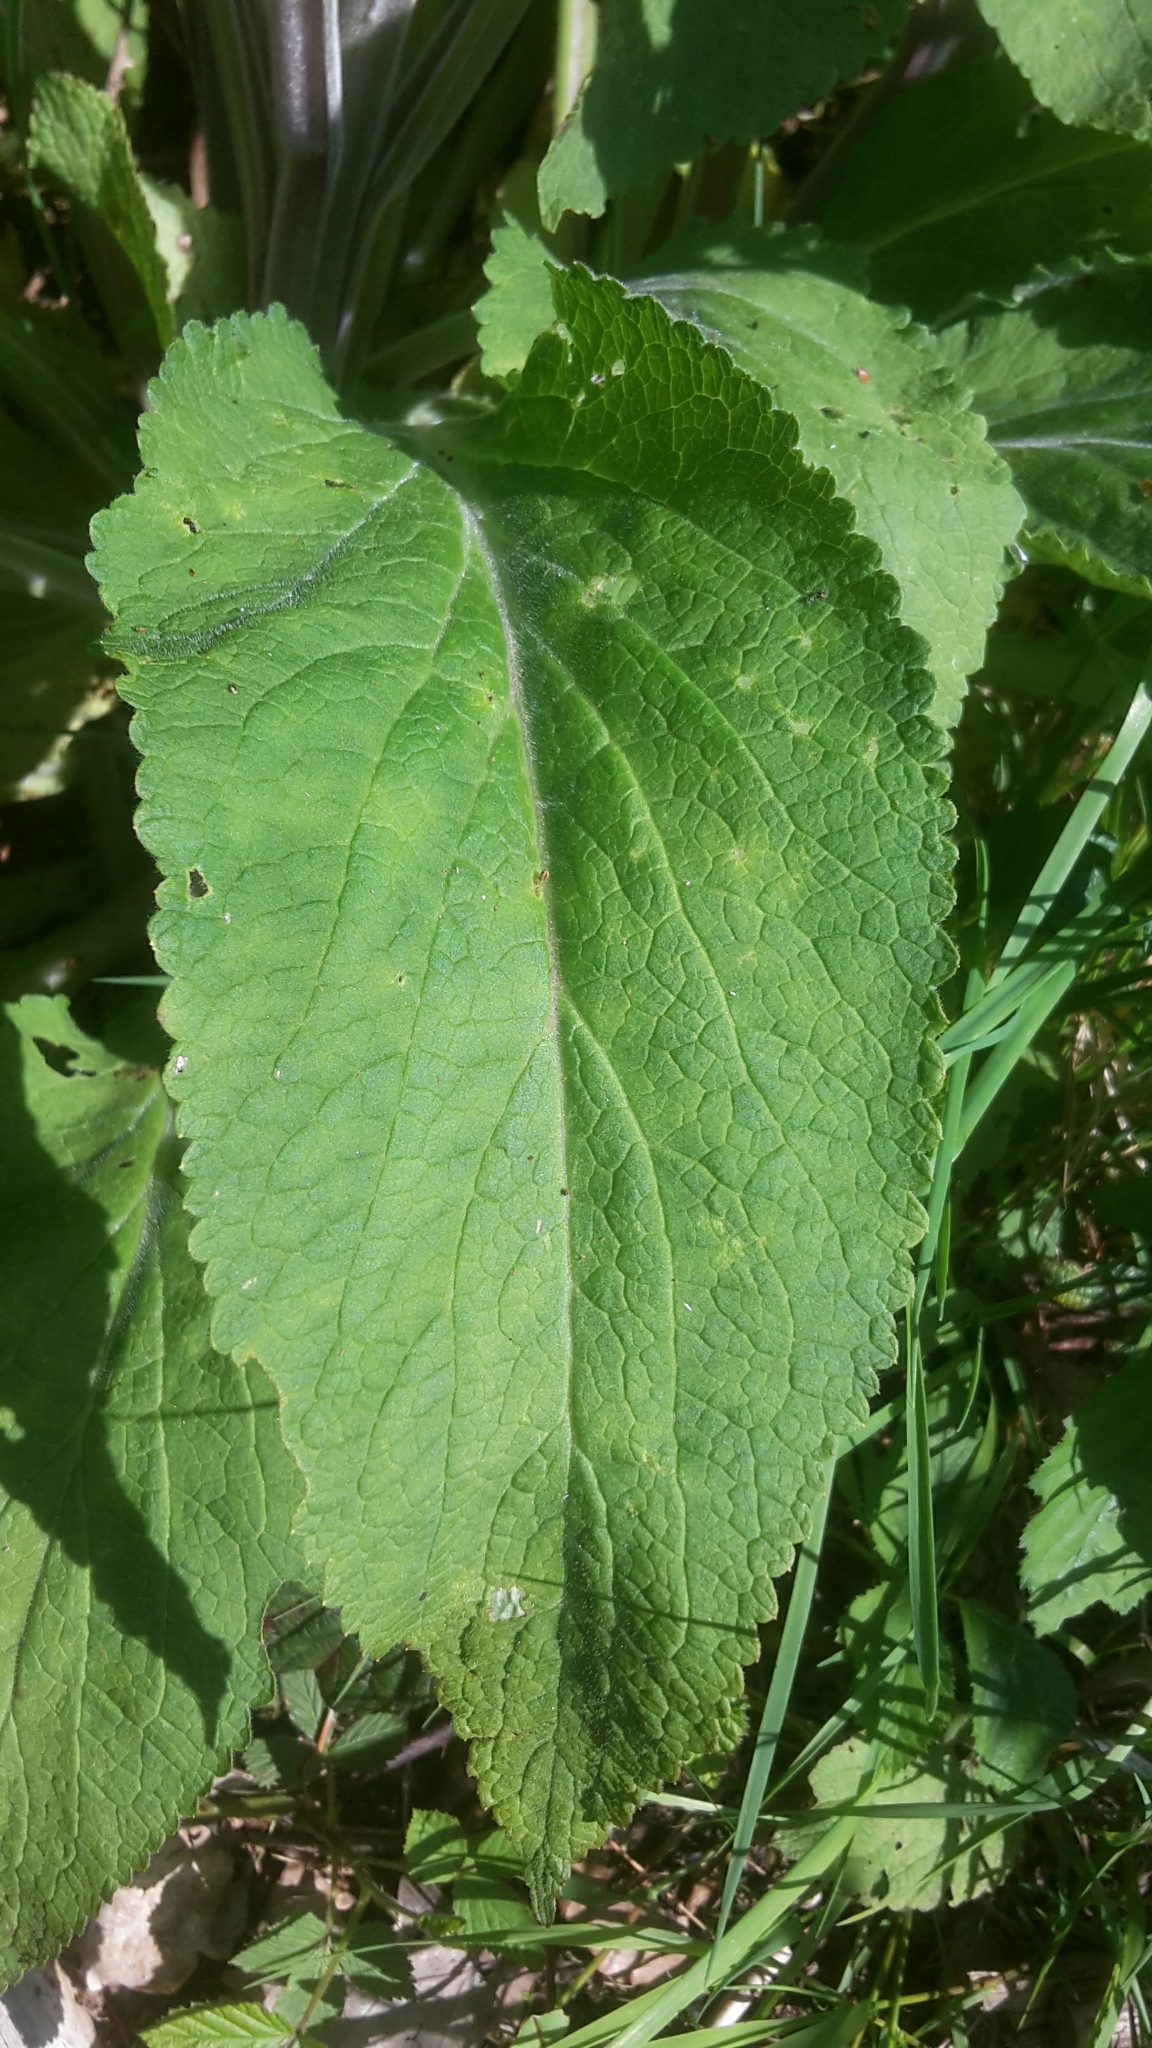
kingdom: Plantae
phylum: Tracheophyta
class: Magnoliopsida
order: Lamiales
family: Plantaginaceae
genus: Digitalis
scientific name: Digitalis purpurea
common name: Foxglove
